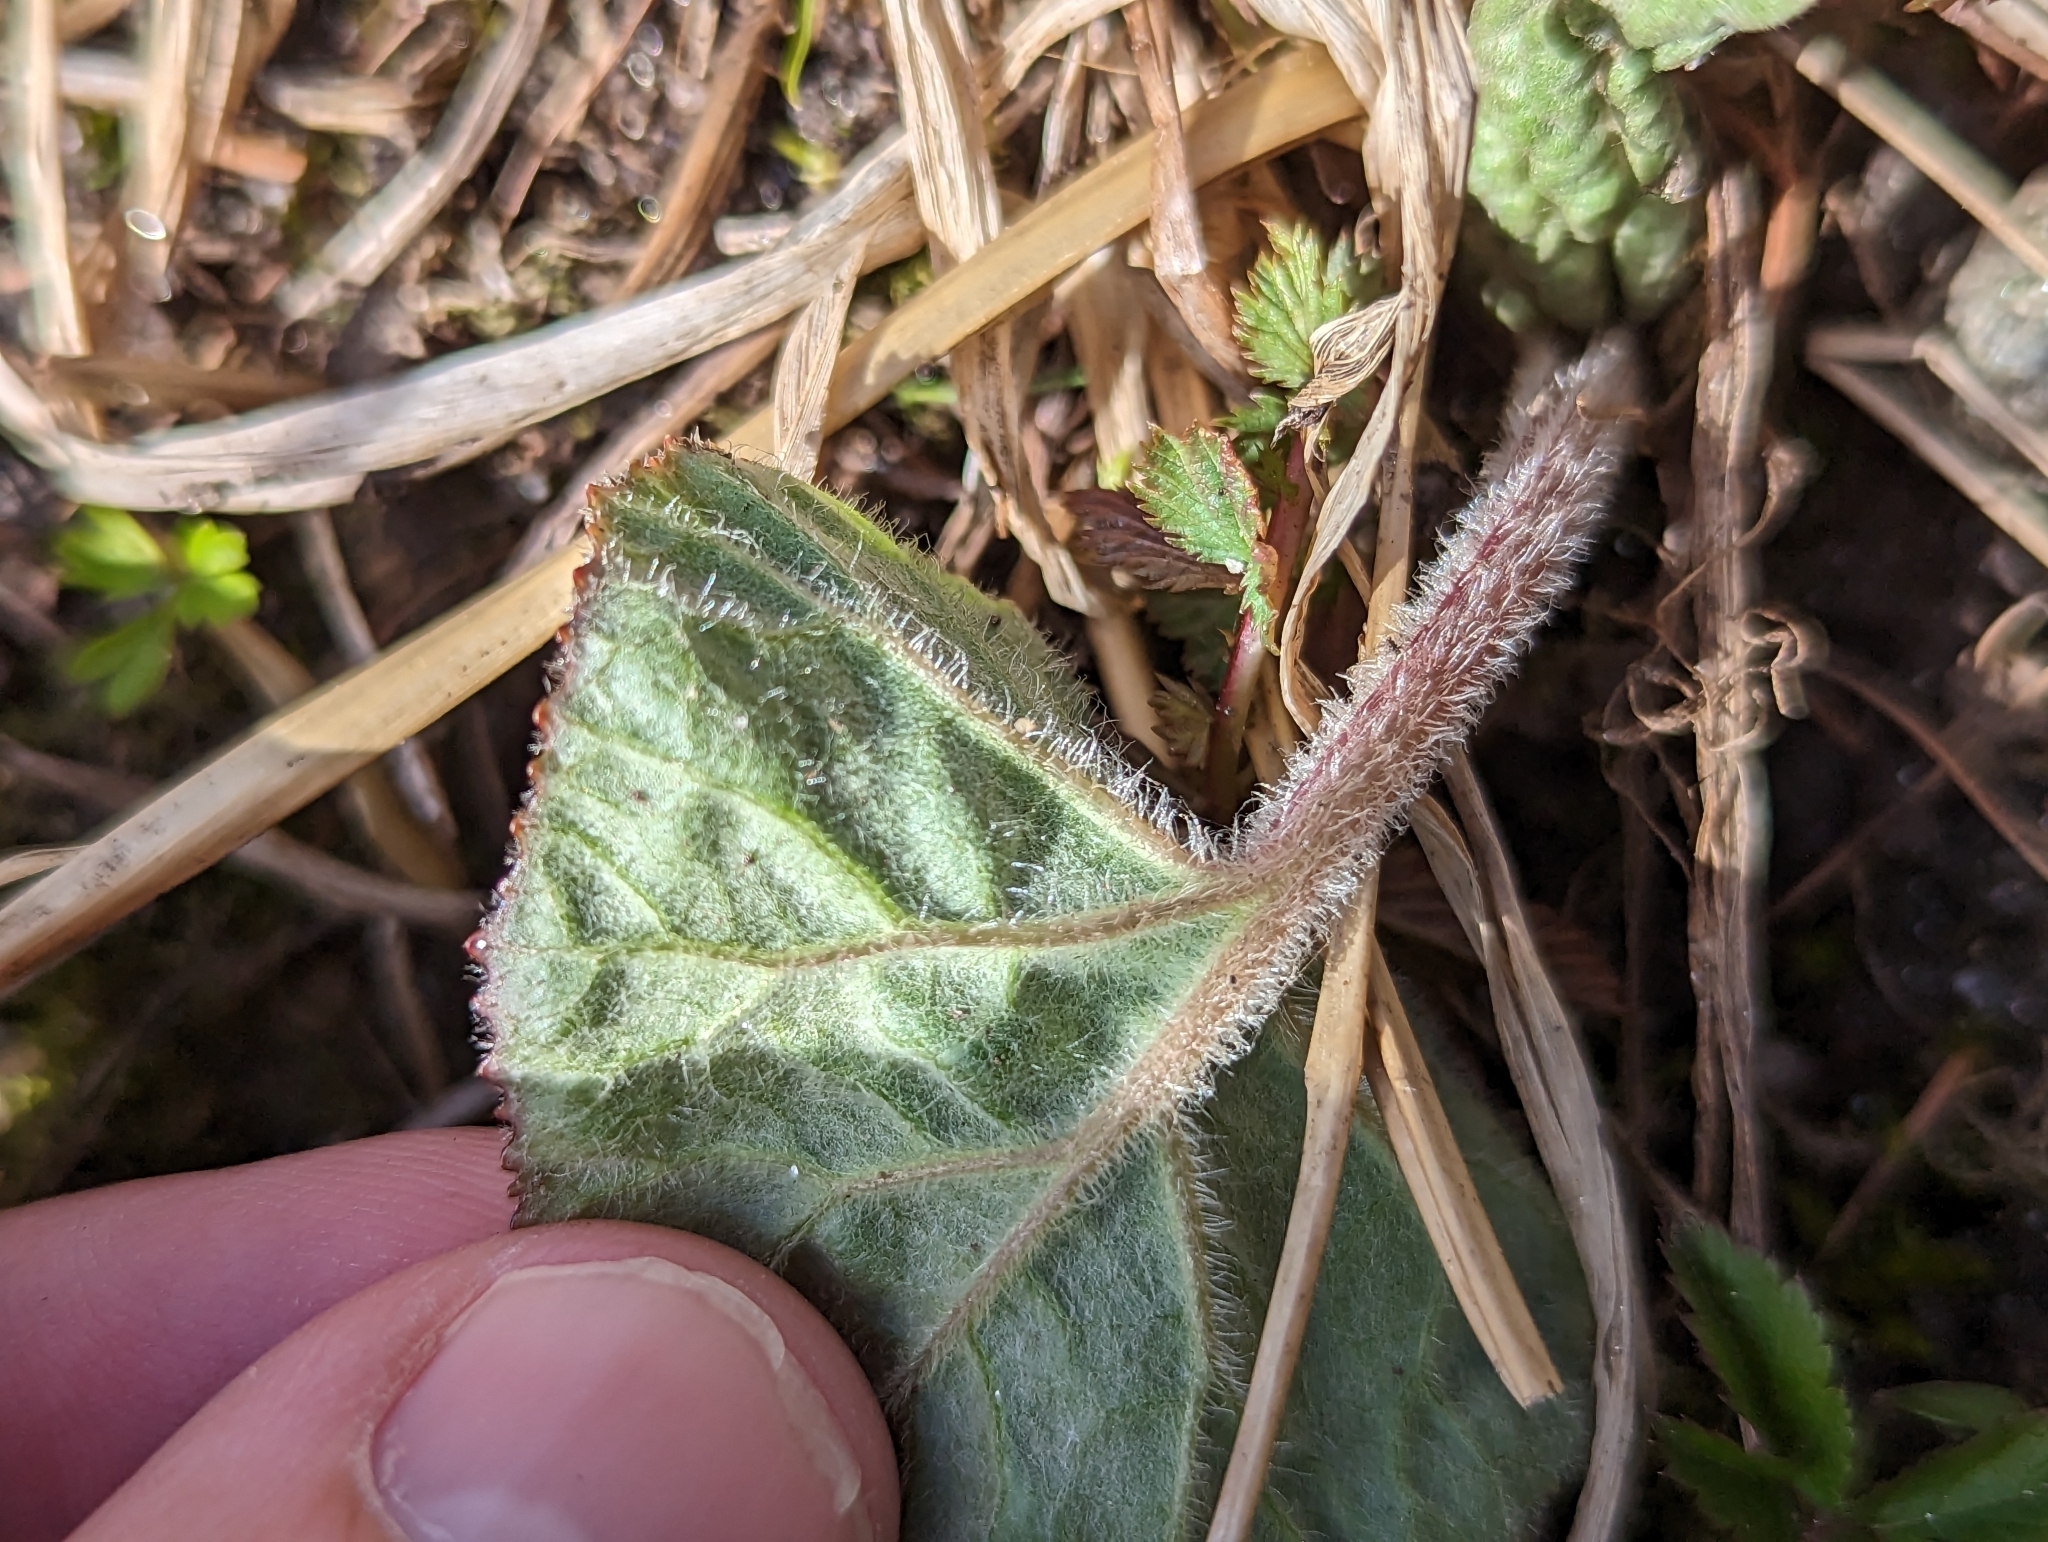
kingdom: Plantae
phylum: Tracheophyta
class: Magnoliopsida
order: Asterales
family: Asteraceae
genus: Petasites
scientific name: Petasites hybridus
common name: Butterbur
